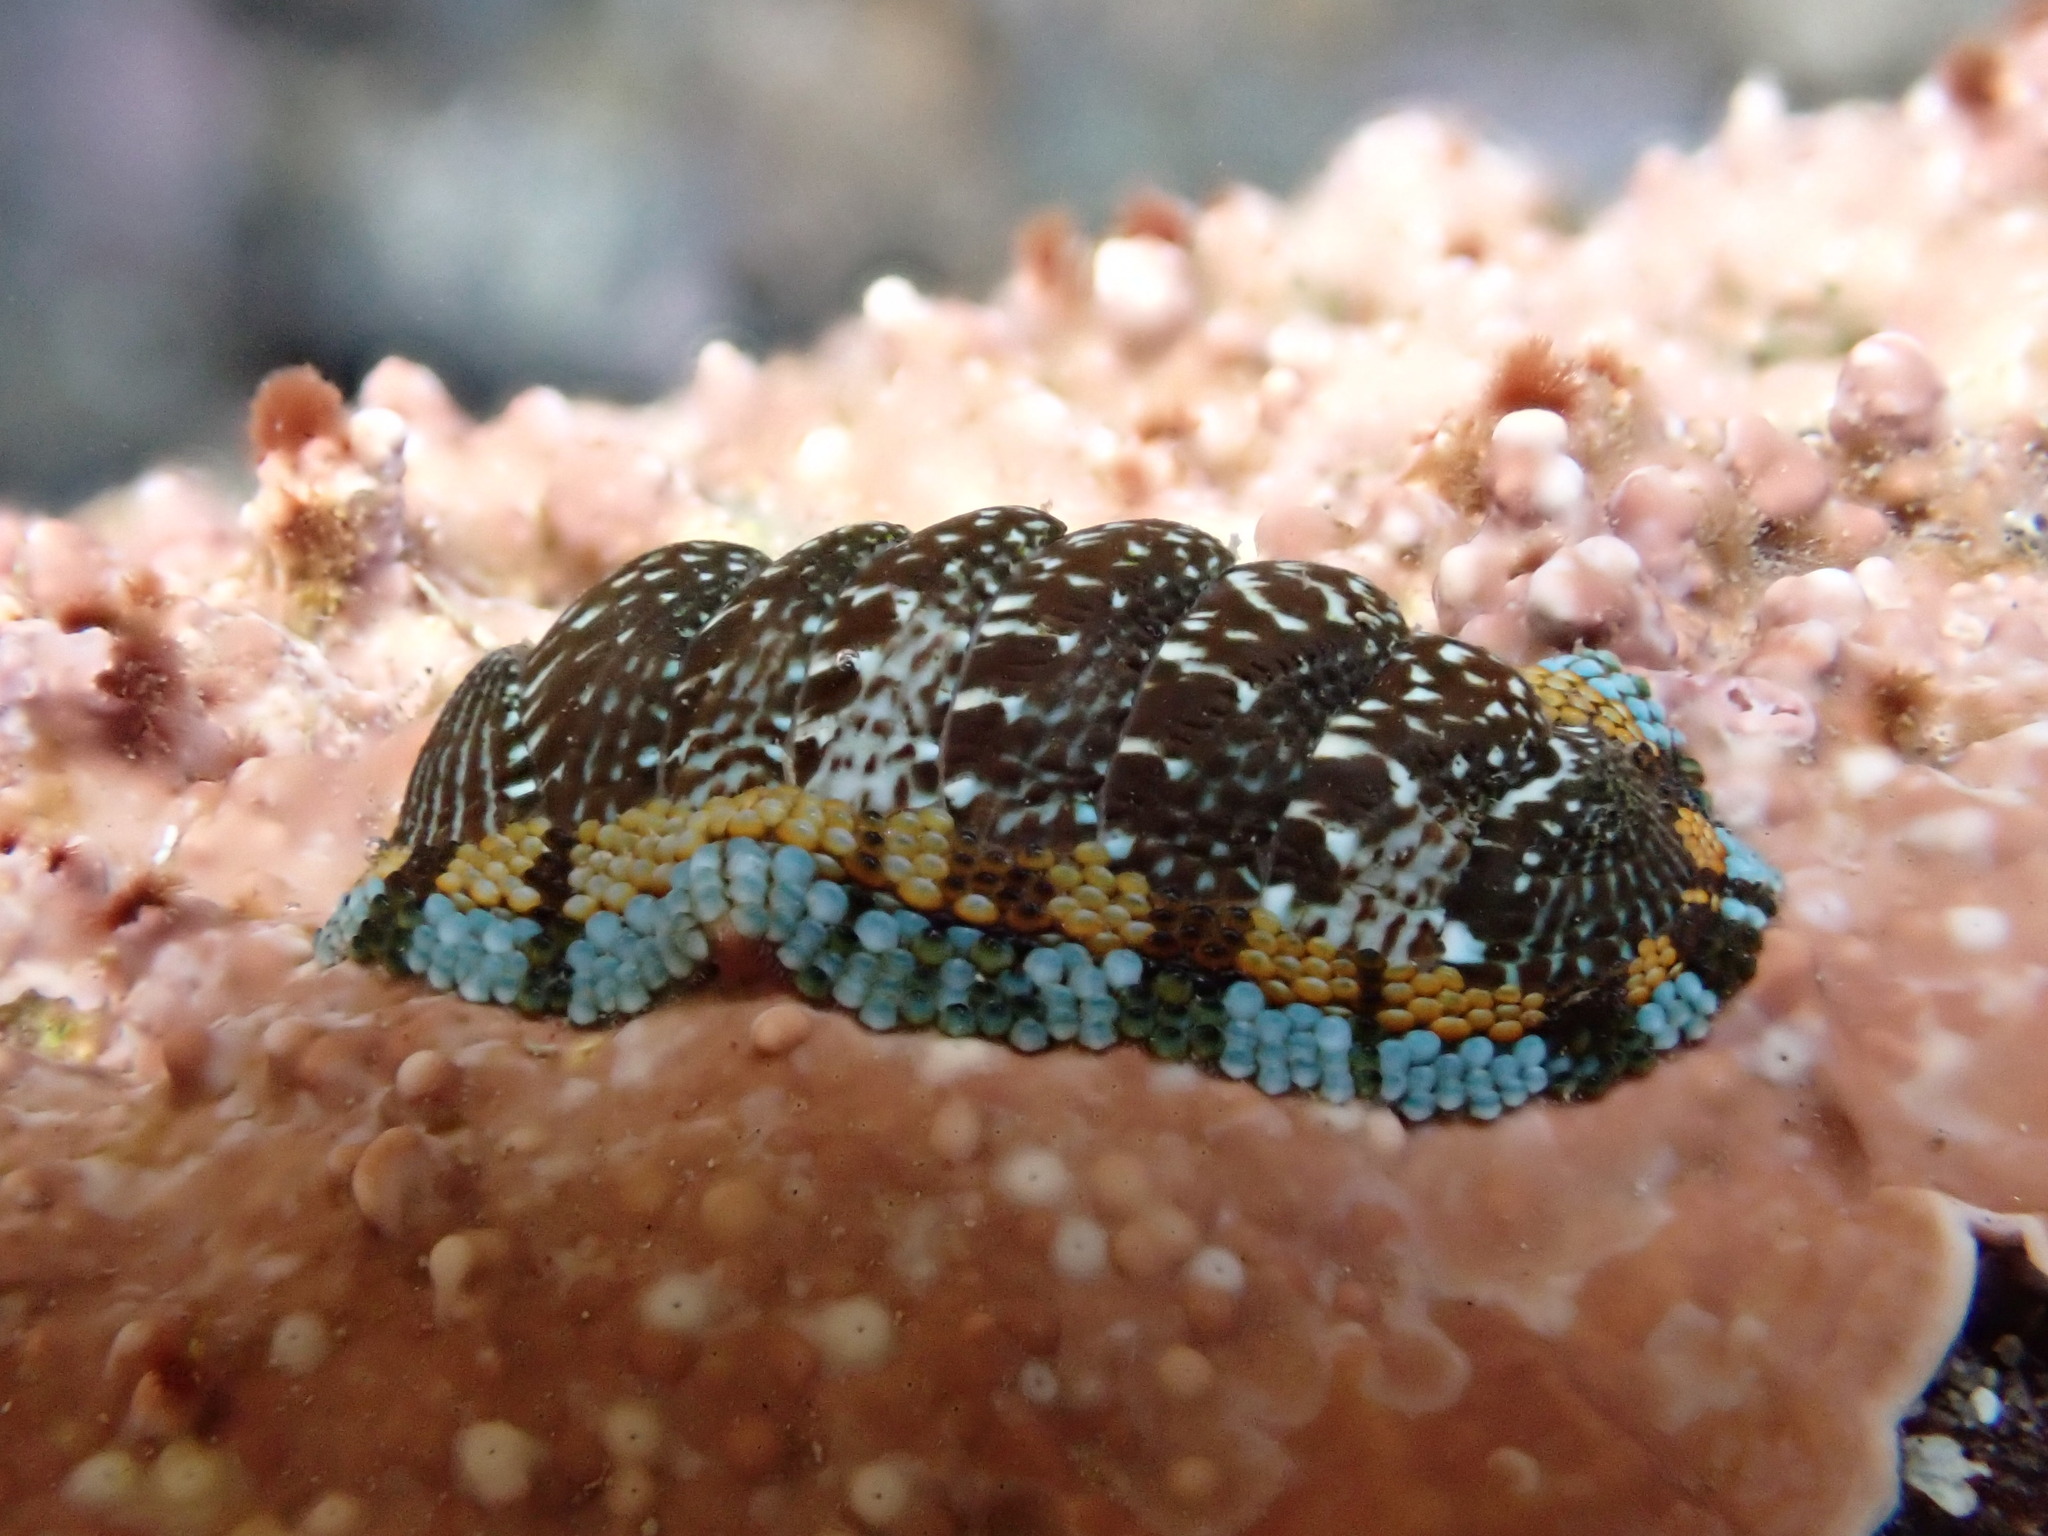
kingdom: Animalia
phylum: Mollusca
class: Polyplacophora
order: Chitonida
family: Chitonidae
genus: Sypharochiton
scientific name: Sypharochiton sinclairi
